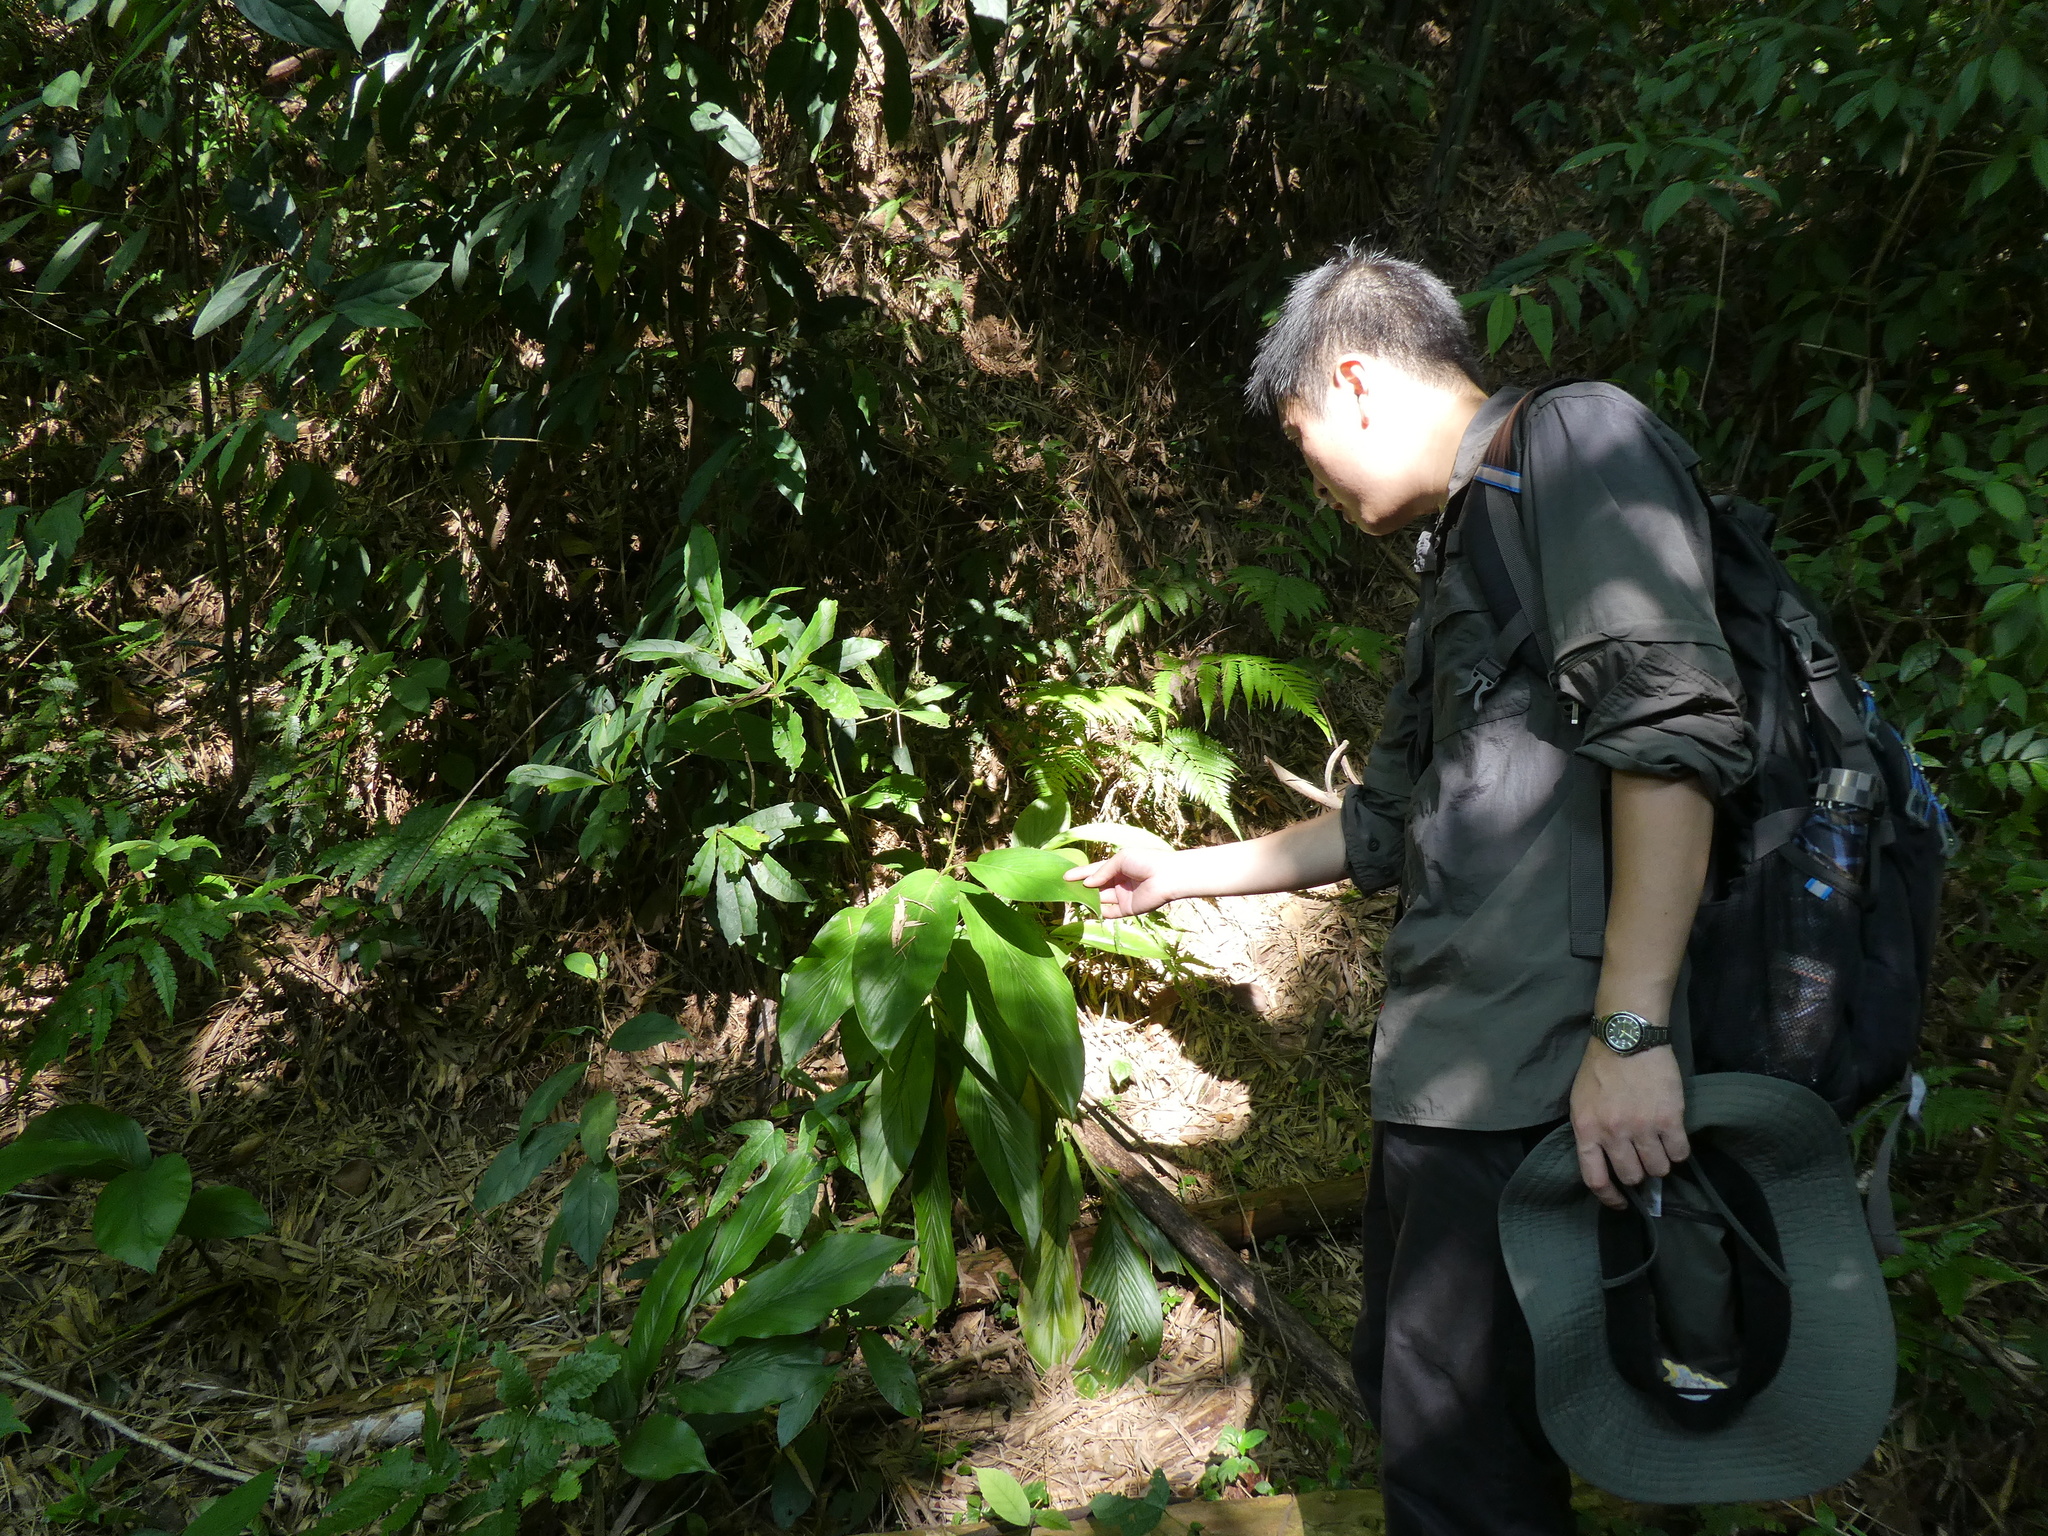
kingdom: Plantae
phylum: Tracheophyta
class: Liliopsida
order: Zingiberales
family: Zingiberaceae
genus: Alpinia
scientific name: Alpinia chinensis
